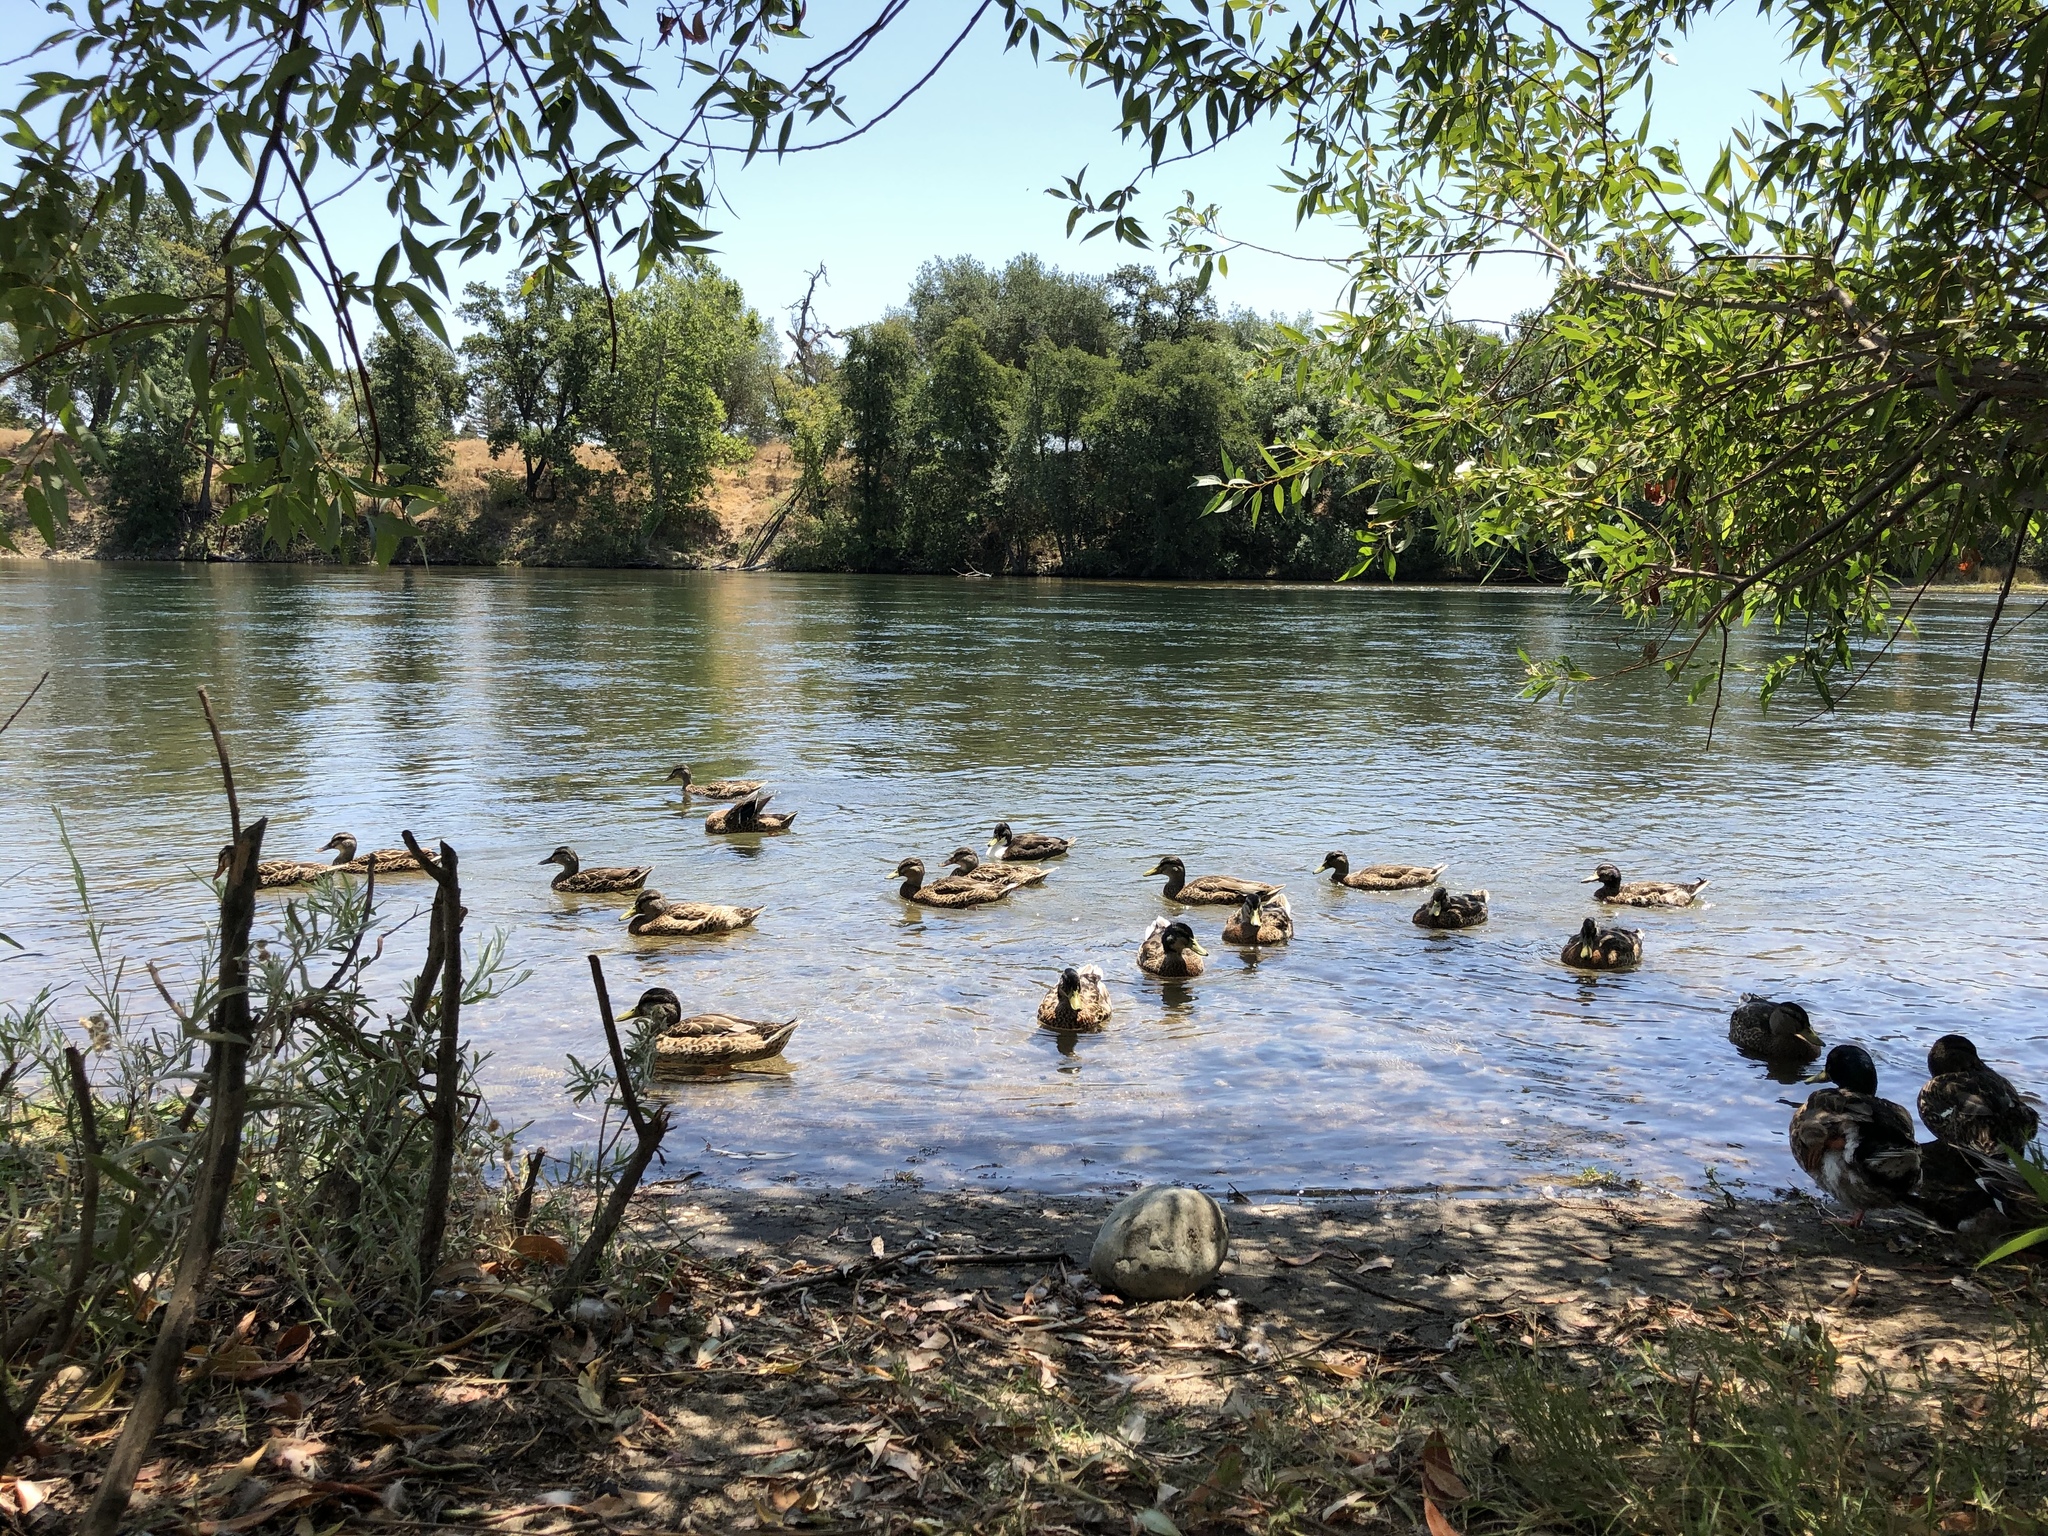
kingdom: Animalia
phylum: Chordata
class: Aves
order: Anseriformes
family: Anatidae
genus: Anas
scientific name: Anas platyrhynchos
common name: Mallard
